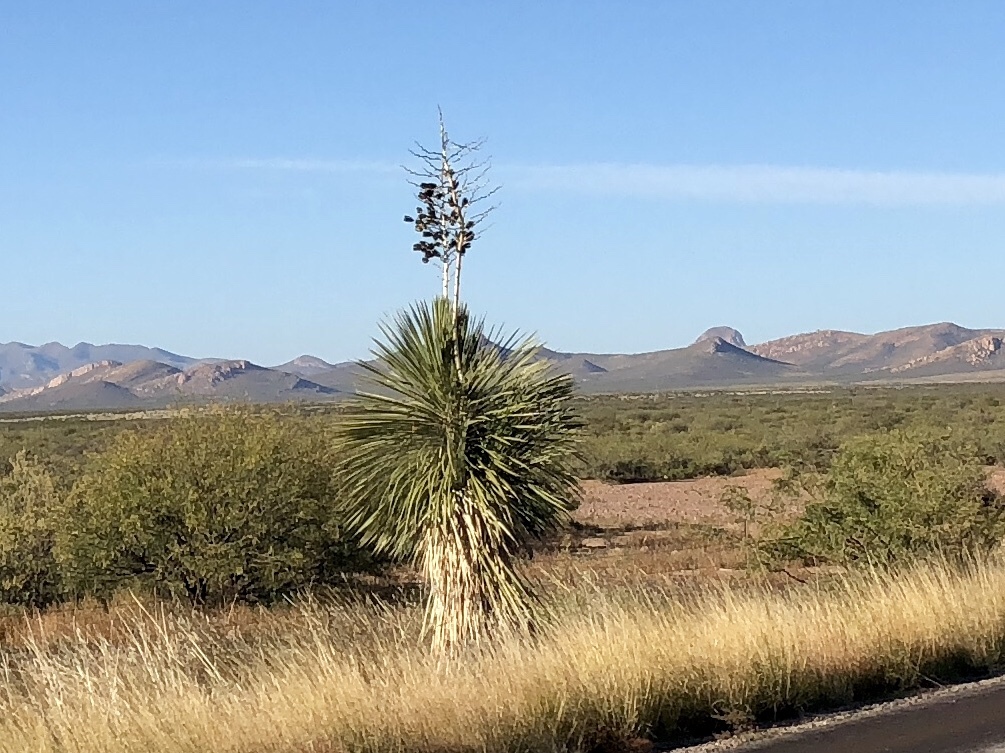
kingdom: Plantae
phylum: Tracheophyta
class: Liliopsida
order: Asparagales
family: Asparagaceae
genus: Yucca
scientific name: Yucca elata
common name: Palmella
